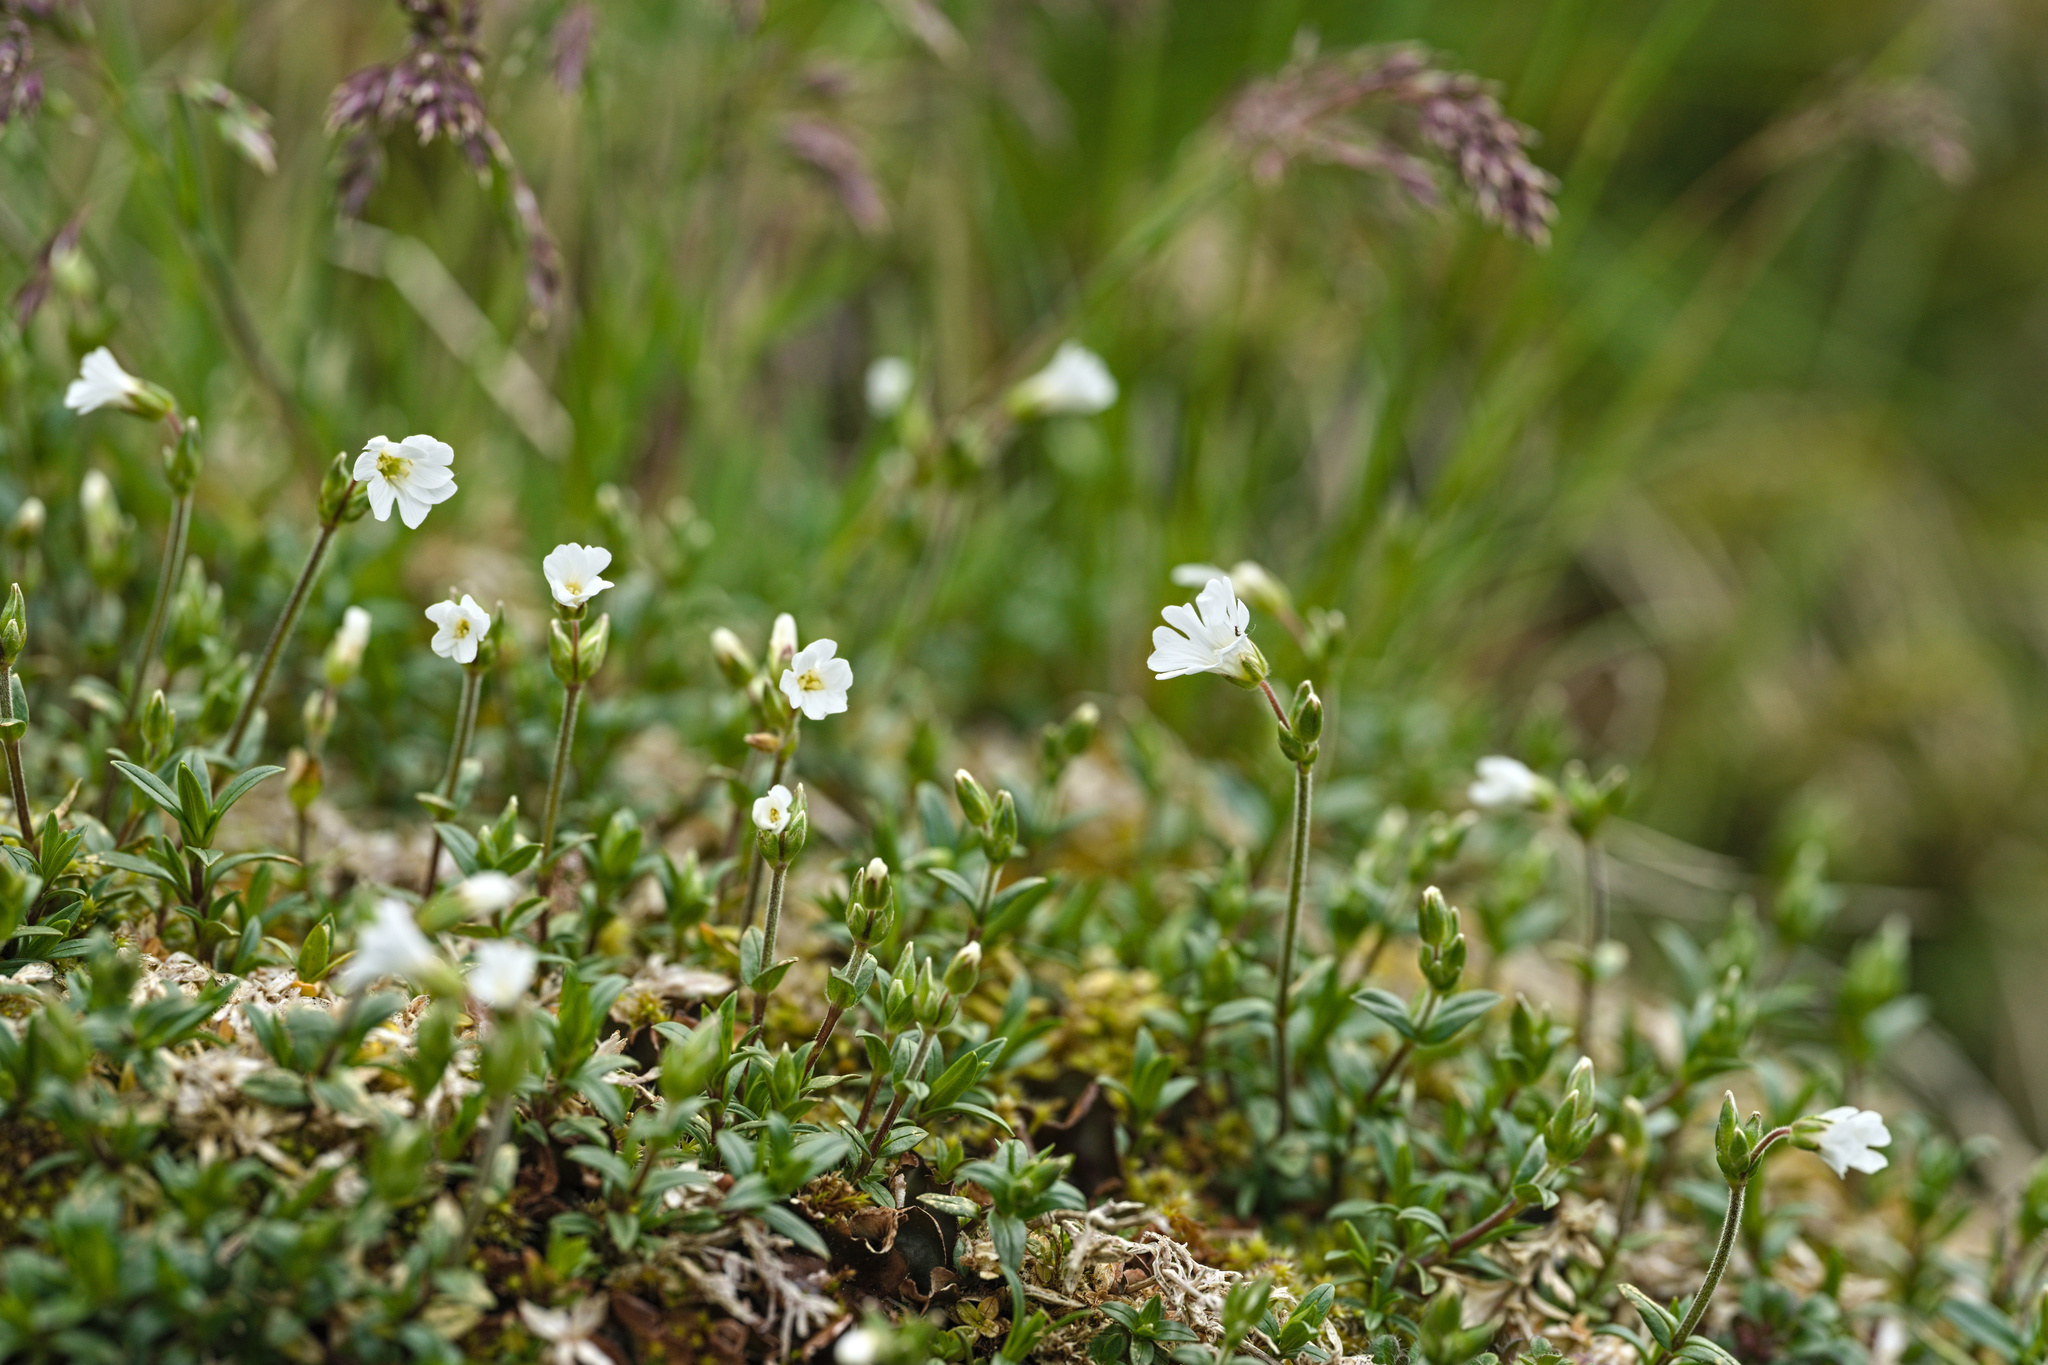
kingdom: Plantae
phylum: Tracheophyta
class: Magnoliopsida
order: Caryophyllales
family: Caryophyllaceae
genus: Cerastium
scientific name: Cerastium alpinum
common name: Alpine mouse-ear
